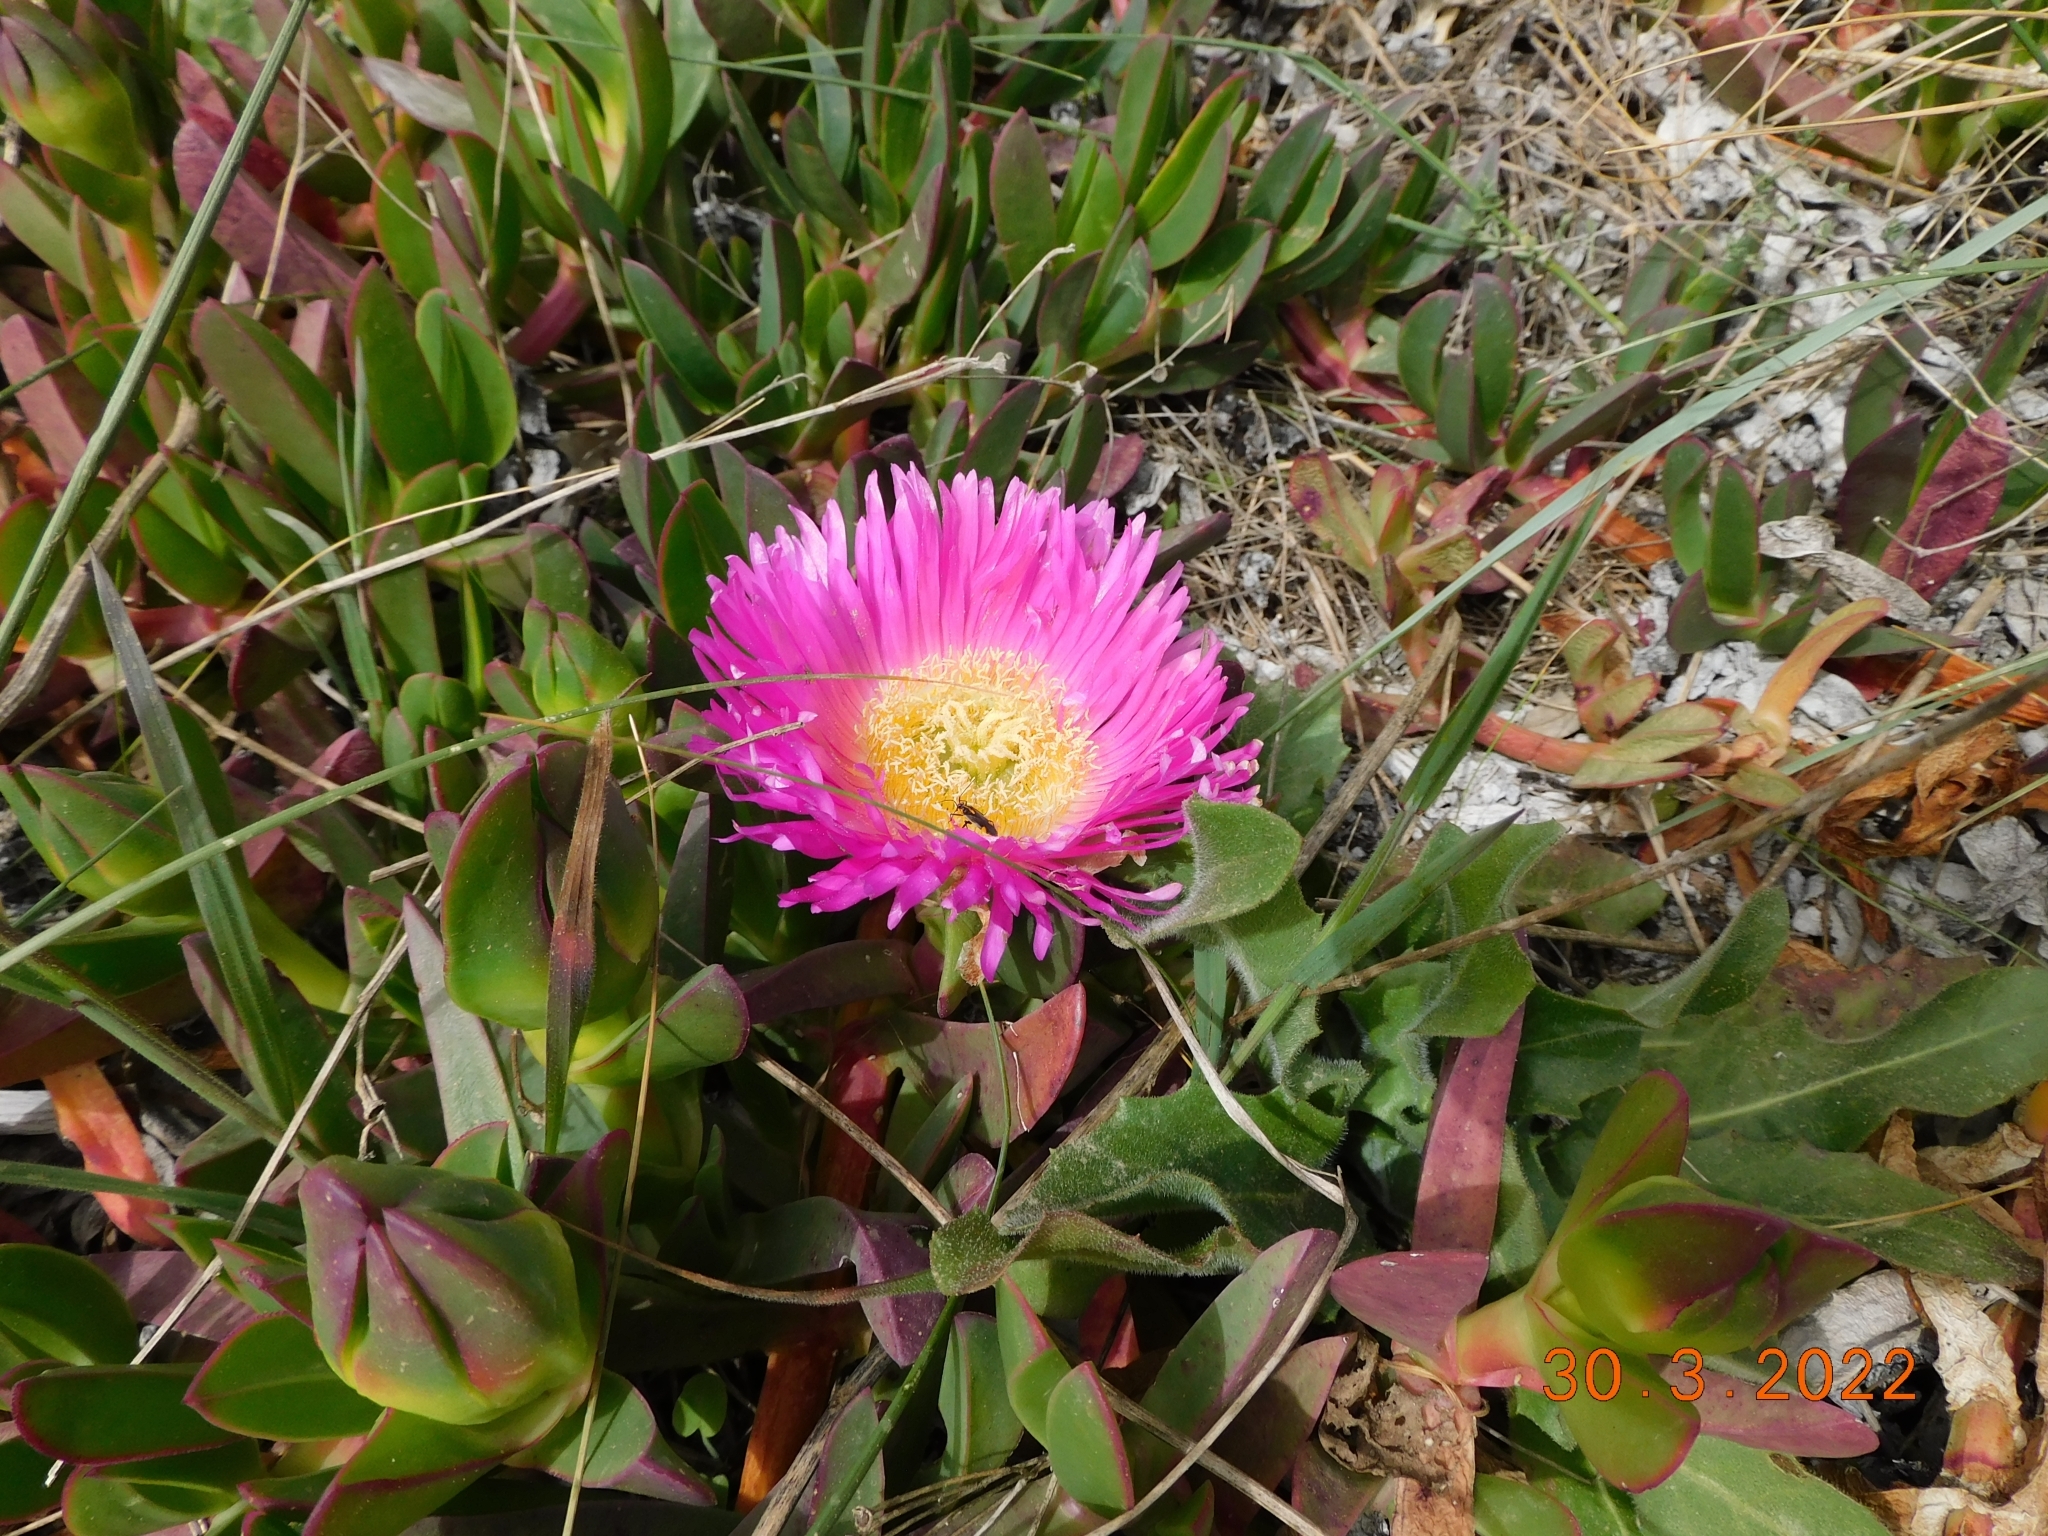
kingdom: Plantae
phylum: Tracheophyta
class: Magnoliopsida
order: Caryophyllales
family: Aizoaceae
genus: Carpobrotus
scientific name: Carpobrotus acinaciformis
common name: Sally-my-handsome
